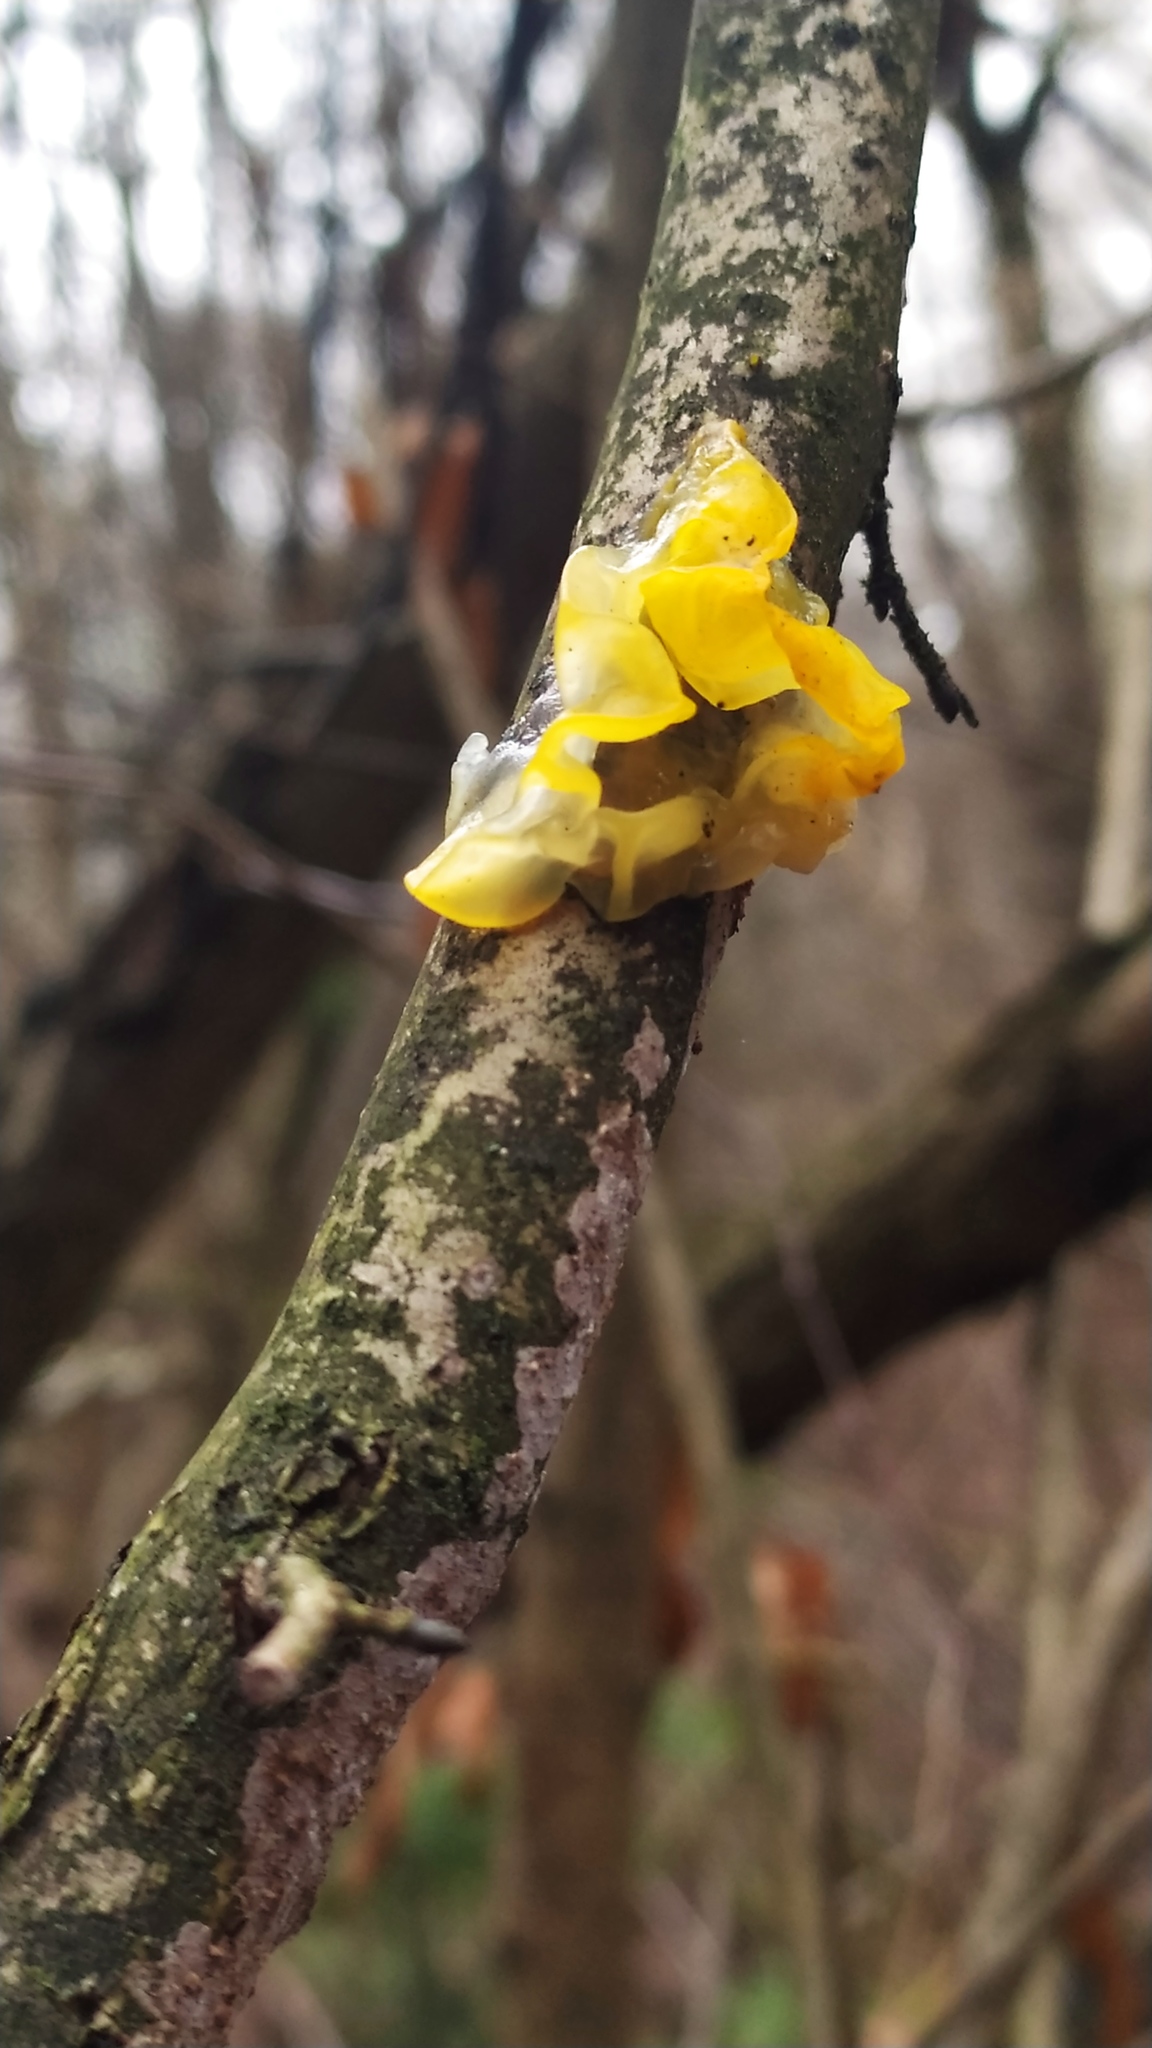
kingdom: Fungi
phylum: Basidiomycota
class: Tremellomycetes
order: Tremellales
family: Tremellaceae
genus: Tremella
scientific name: Tremella mesenterica
